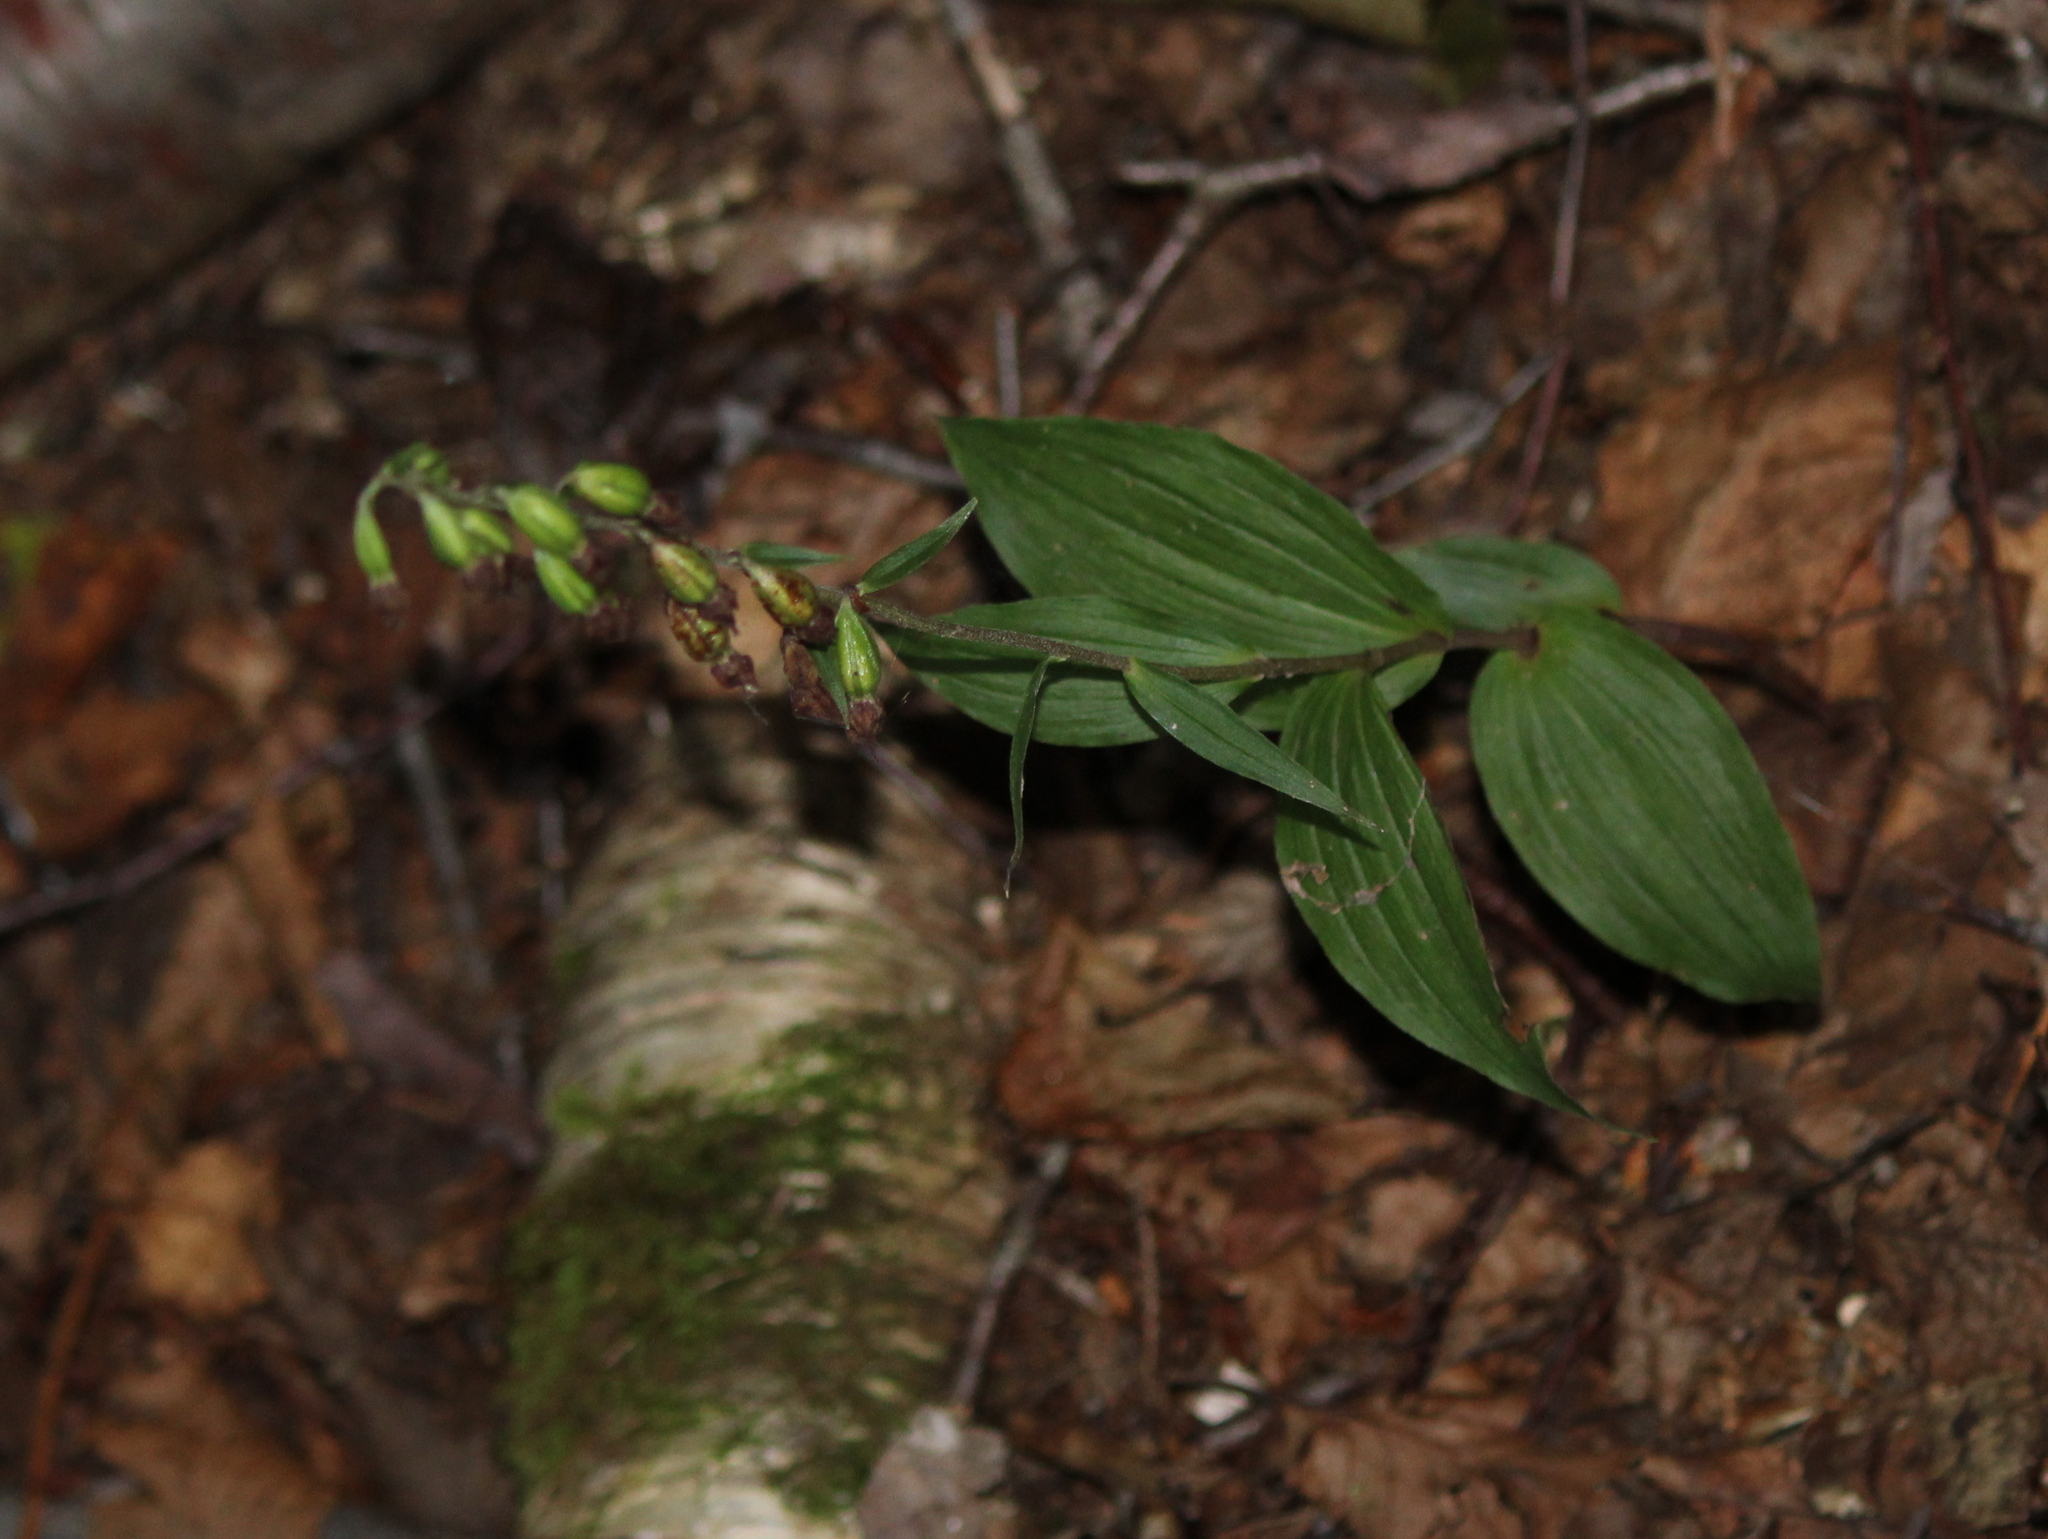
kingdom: Plantae
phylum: Tracheophyta
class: Liliopsida
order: Asparagales
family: Orchidaceae
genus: Epipactis
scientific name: Epipactis helleborine
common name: Broad-leaved helleborine
